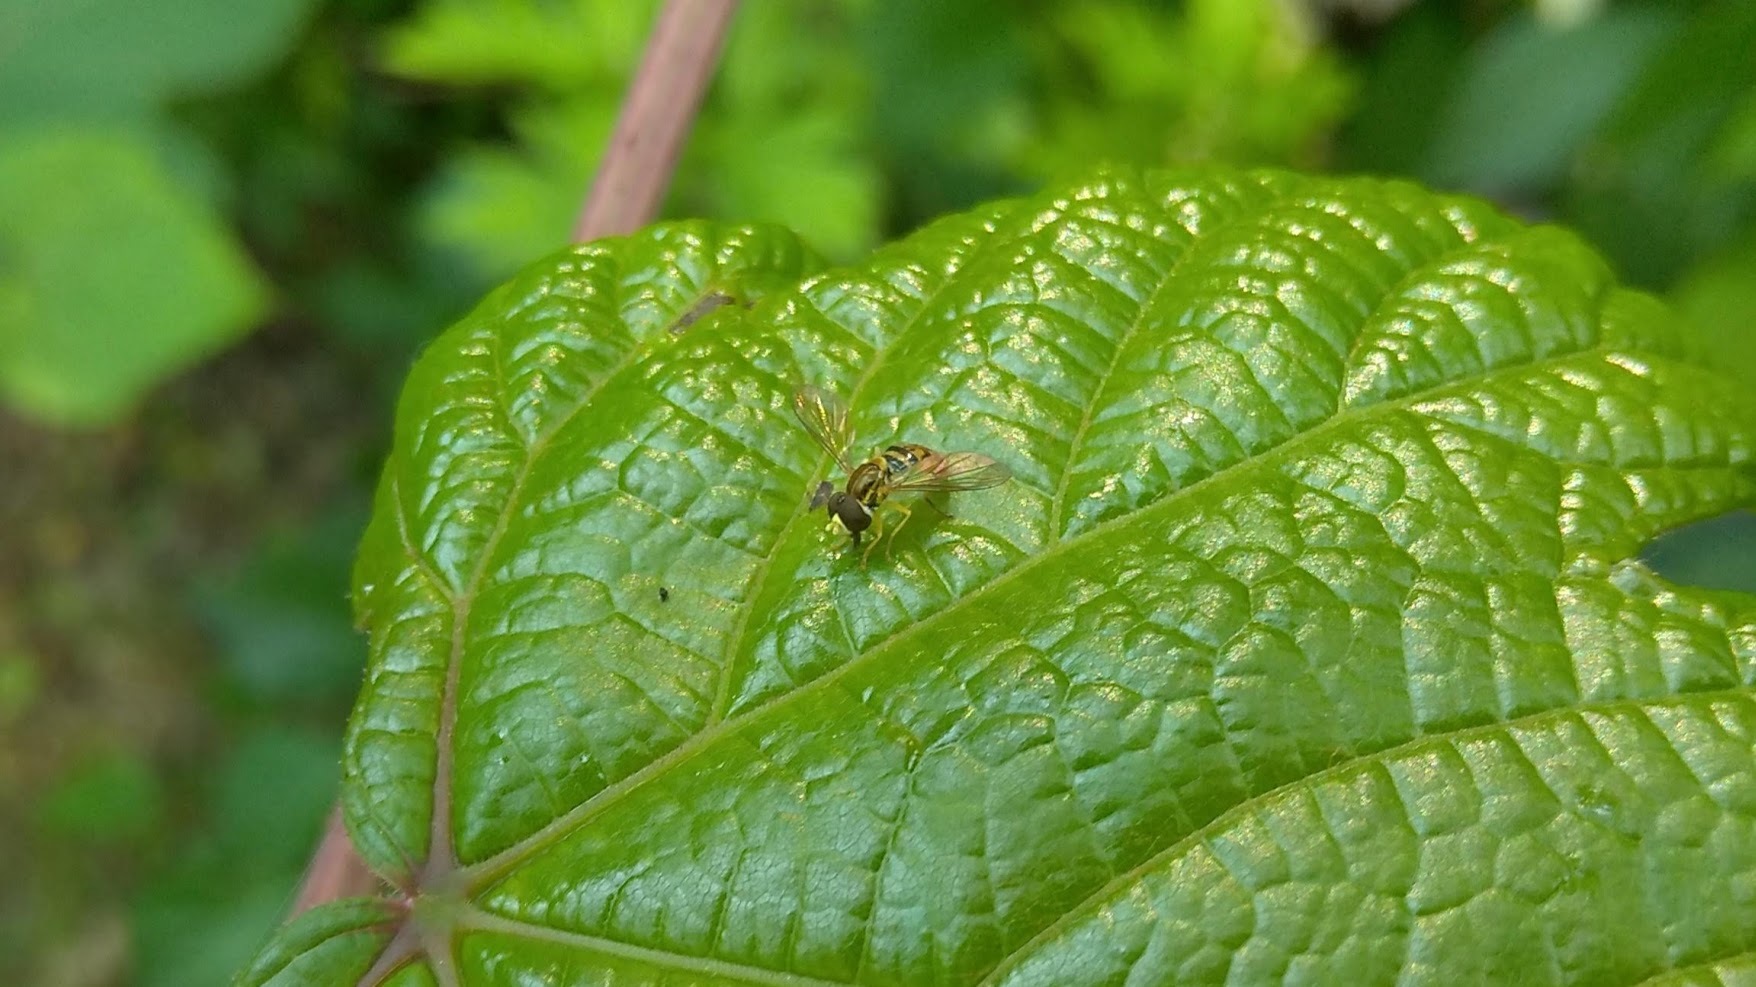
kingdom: Animalia
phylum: Arthropoda
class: Insecta
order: Diptera
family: Syrphidae
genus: Toxomerus
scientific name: Toxomerus marginatus
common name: Syrphid fly
